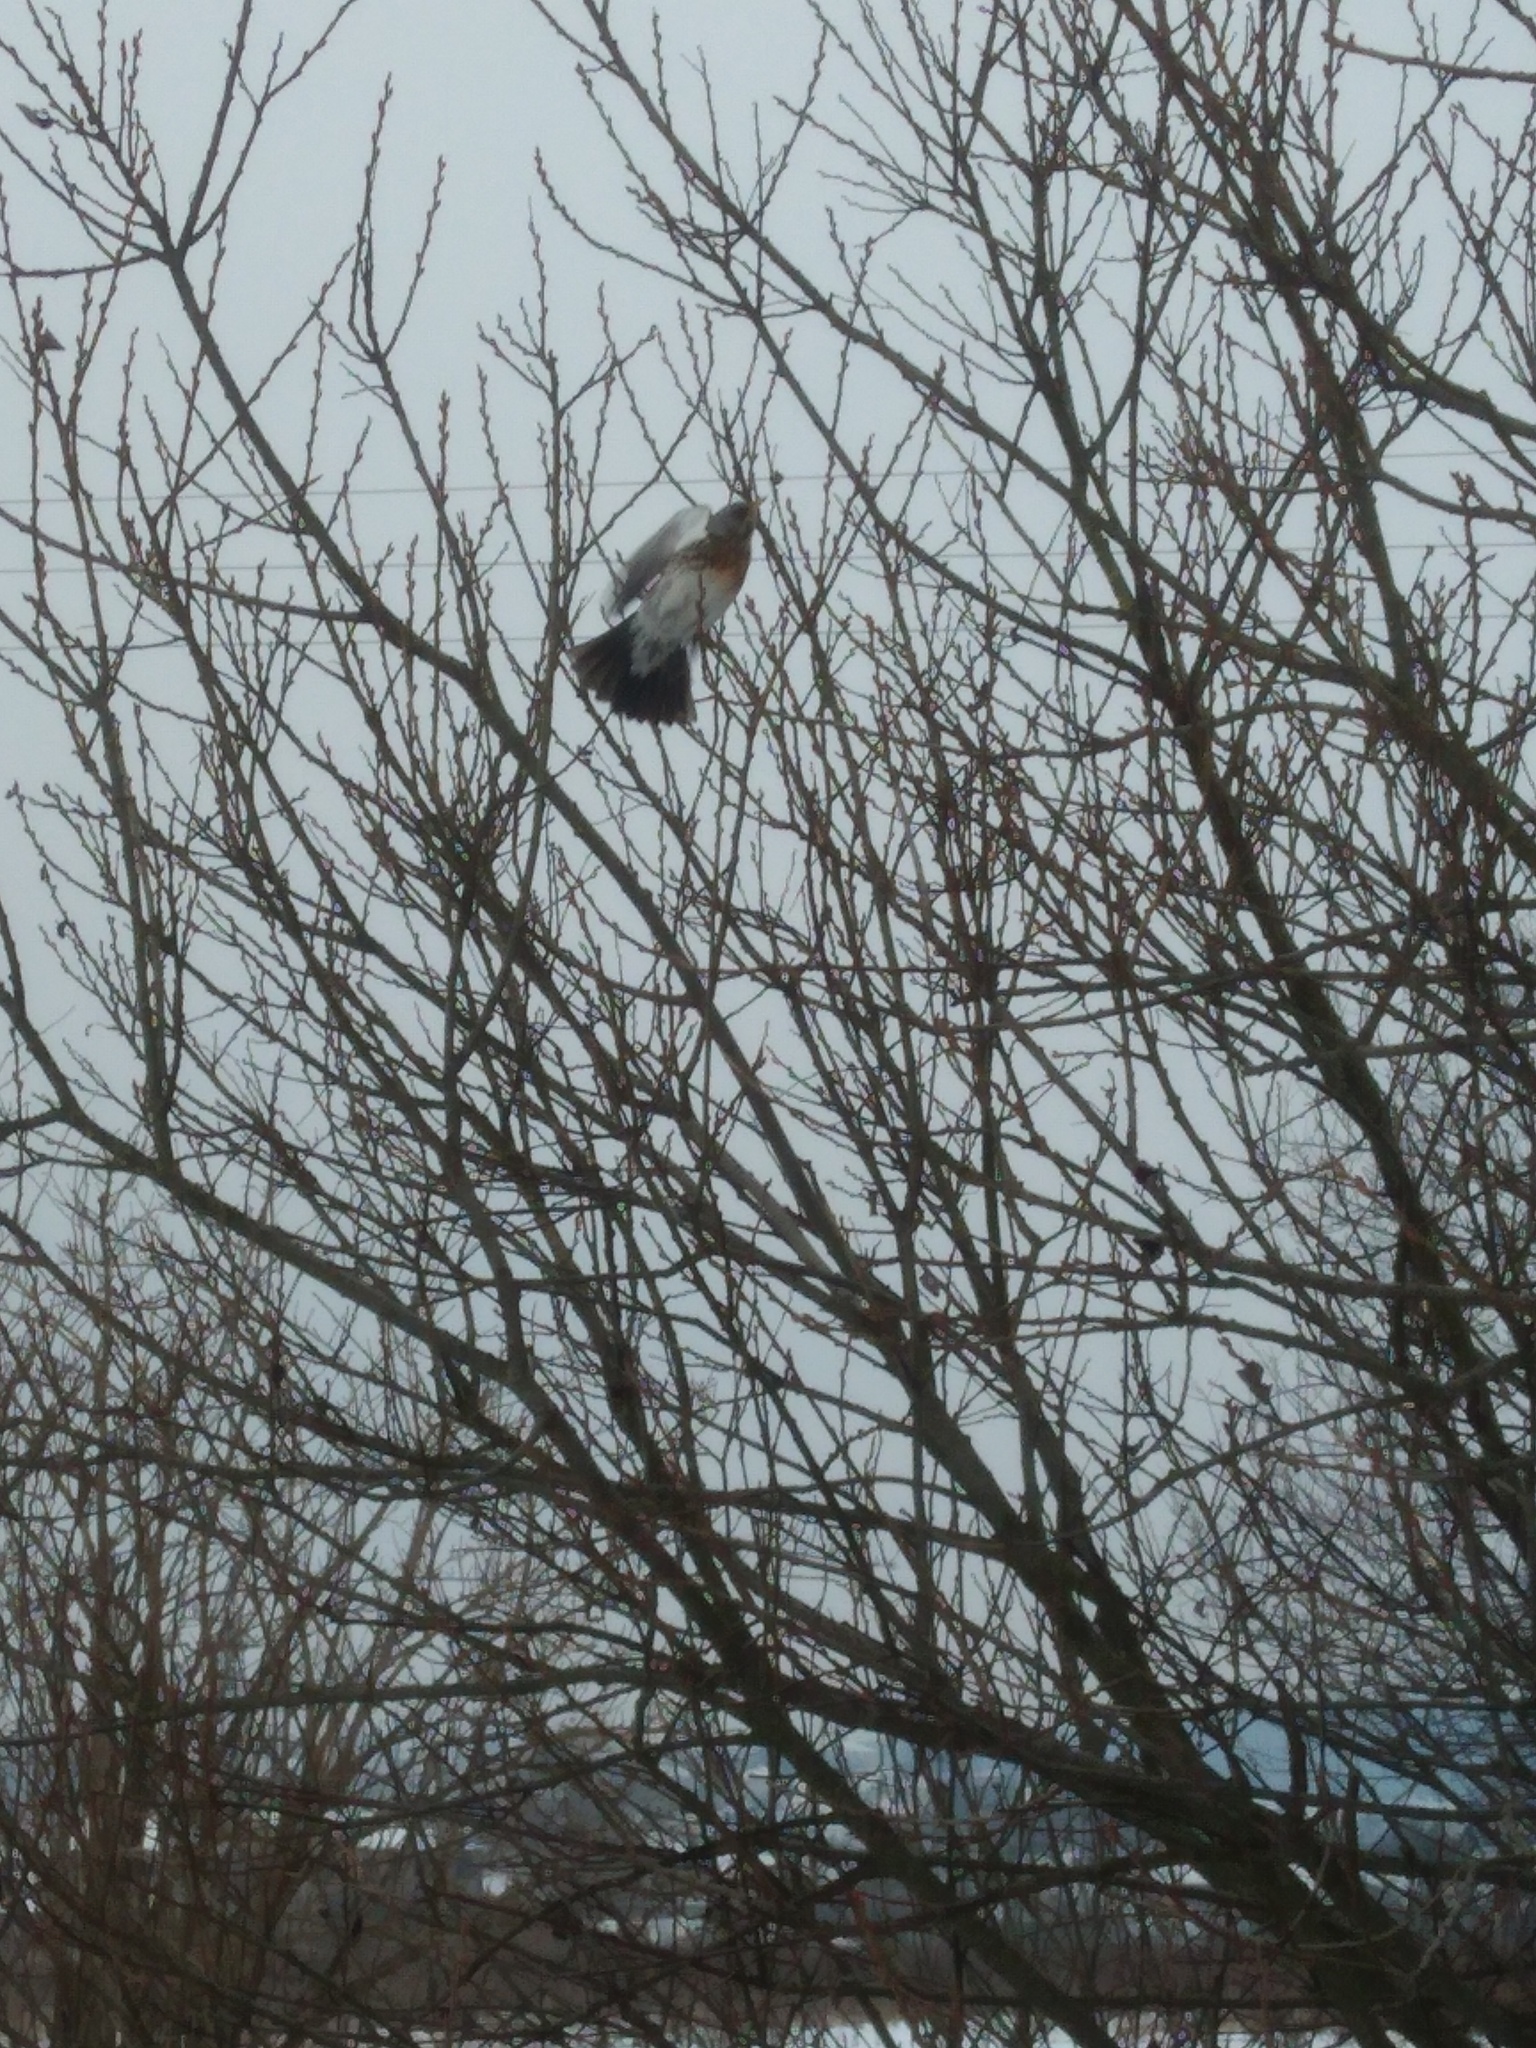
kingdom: Animalia
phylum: Chordata
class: Aves
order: Passeriformes
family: Turdidae
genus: Turdus
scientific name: Turdus pilaris
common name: Fieldfare
